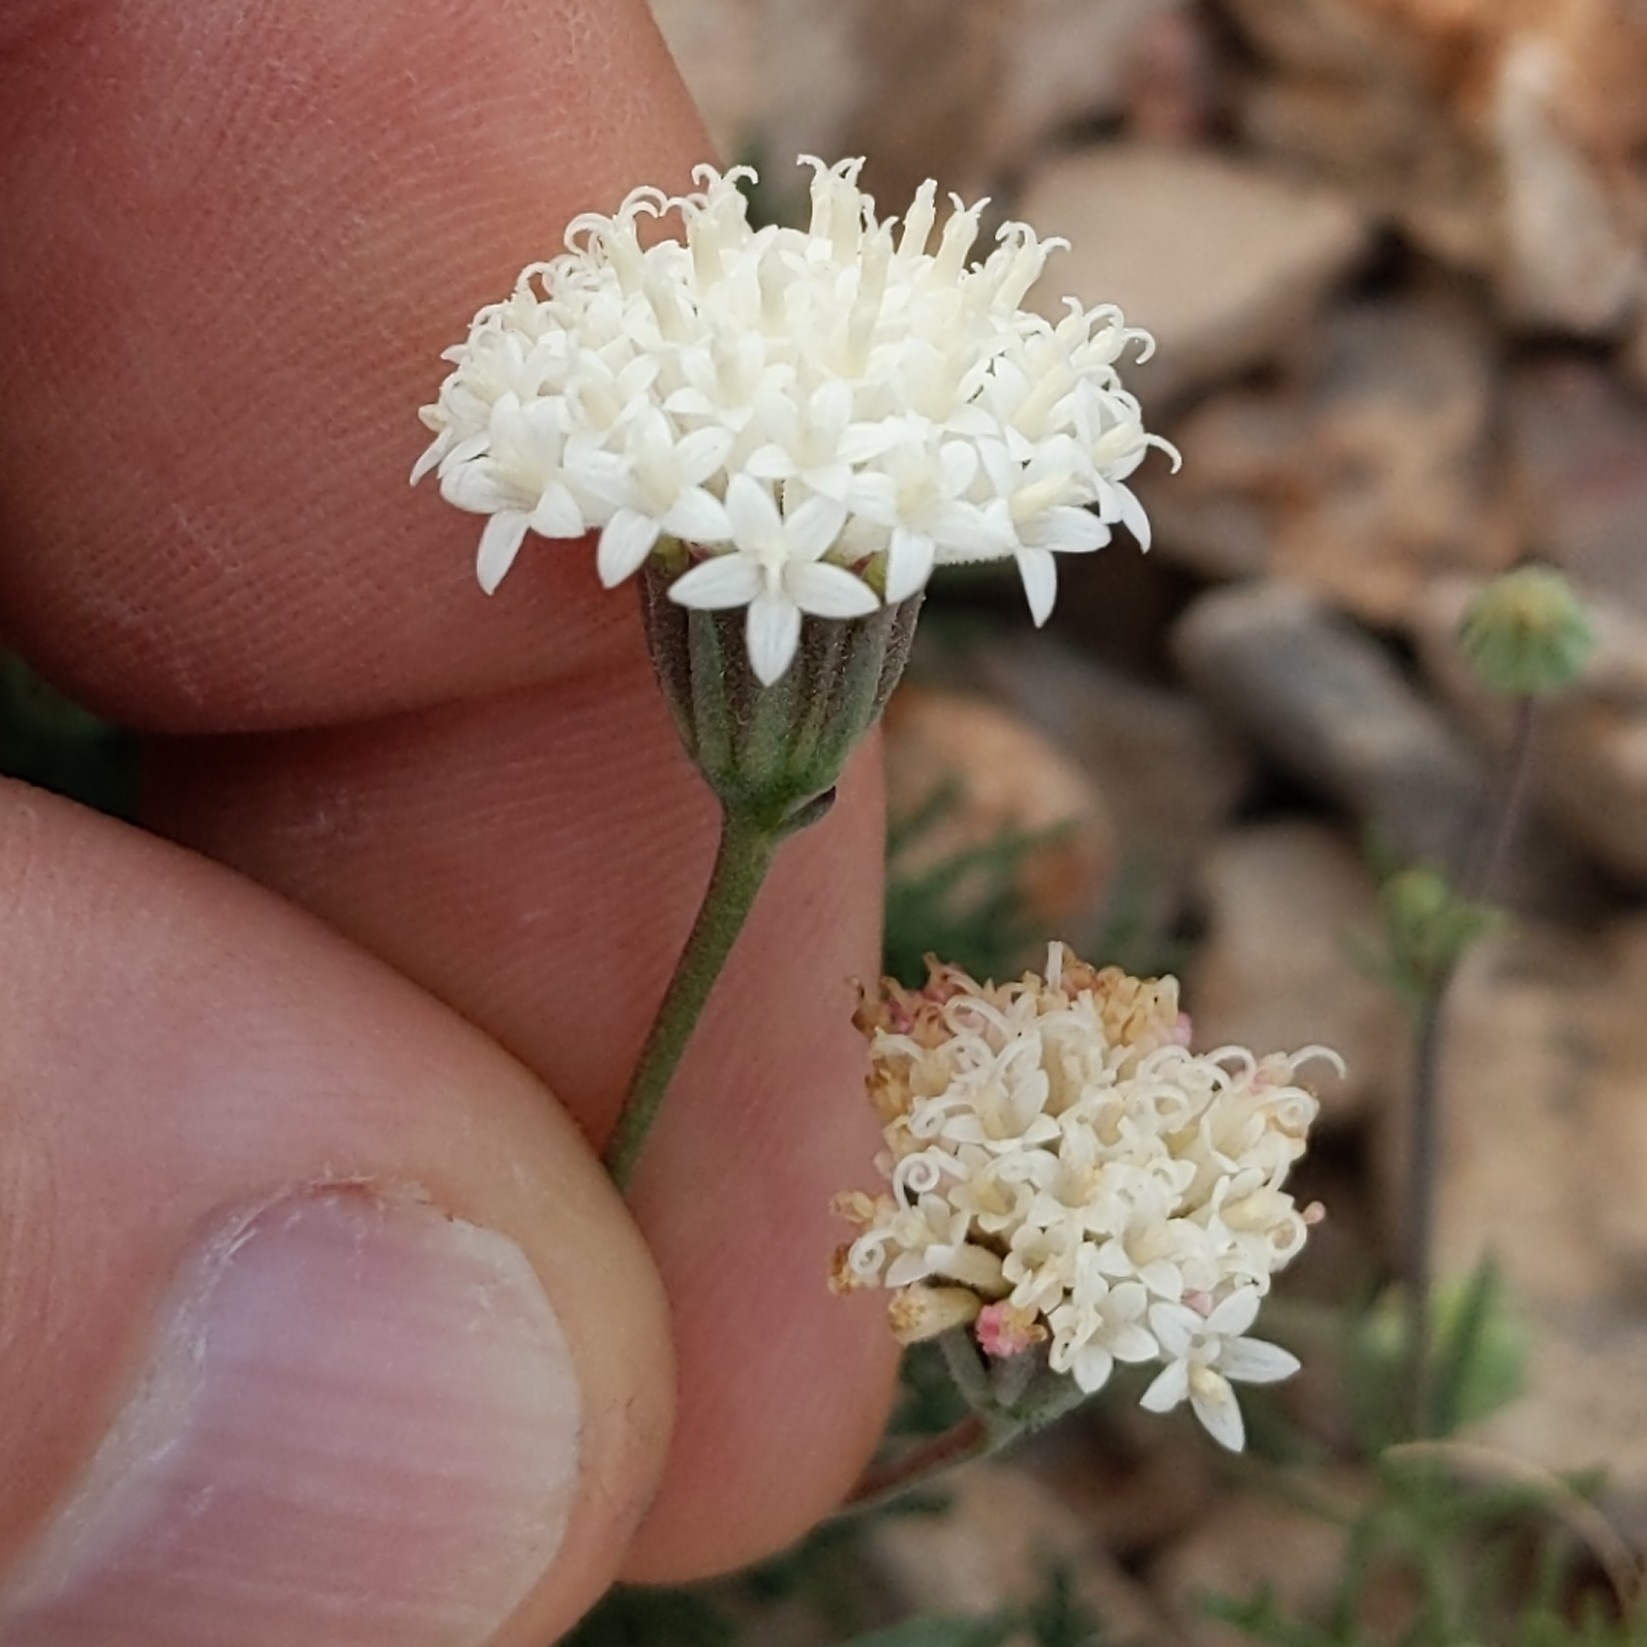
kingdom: Plantae
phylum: Tracheophyta
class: Magnoliopsida
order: Asterales
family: Asteraceae
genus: Chaenactis
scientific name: Chaenactis carphoclinia
